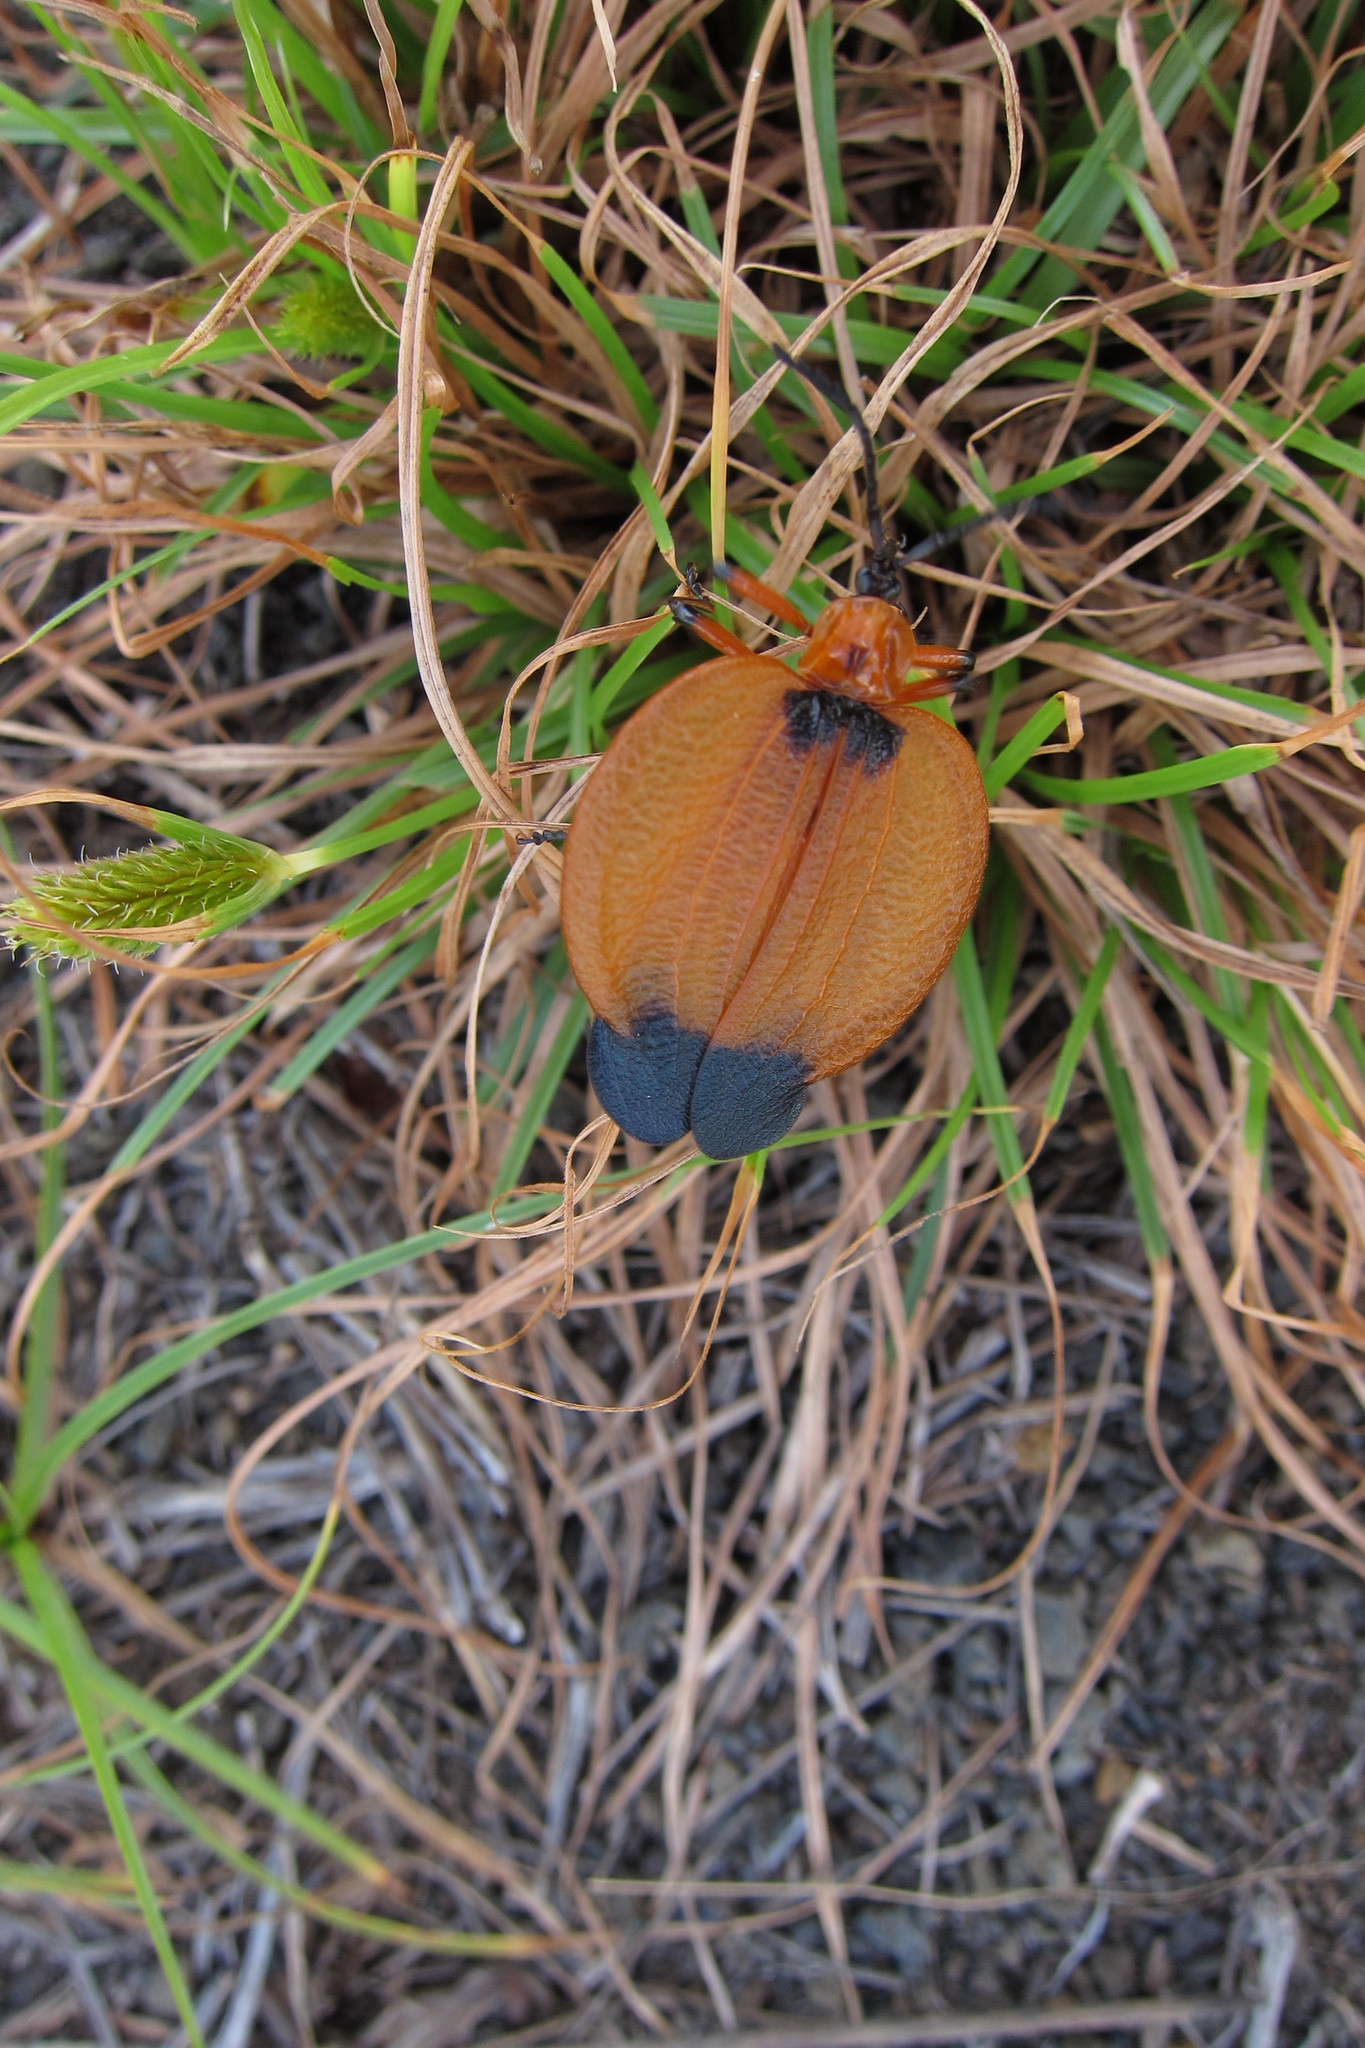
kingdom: Animalia
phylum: Arthropoda
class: Insecta
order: Coleoptera
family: Lycidae
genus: Lycus
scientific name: Lycus
